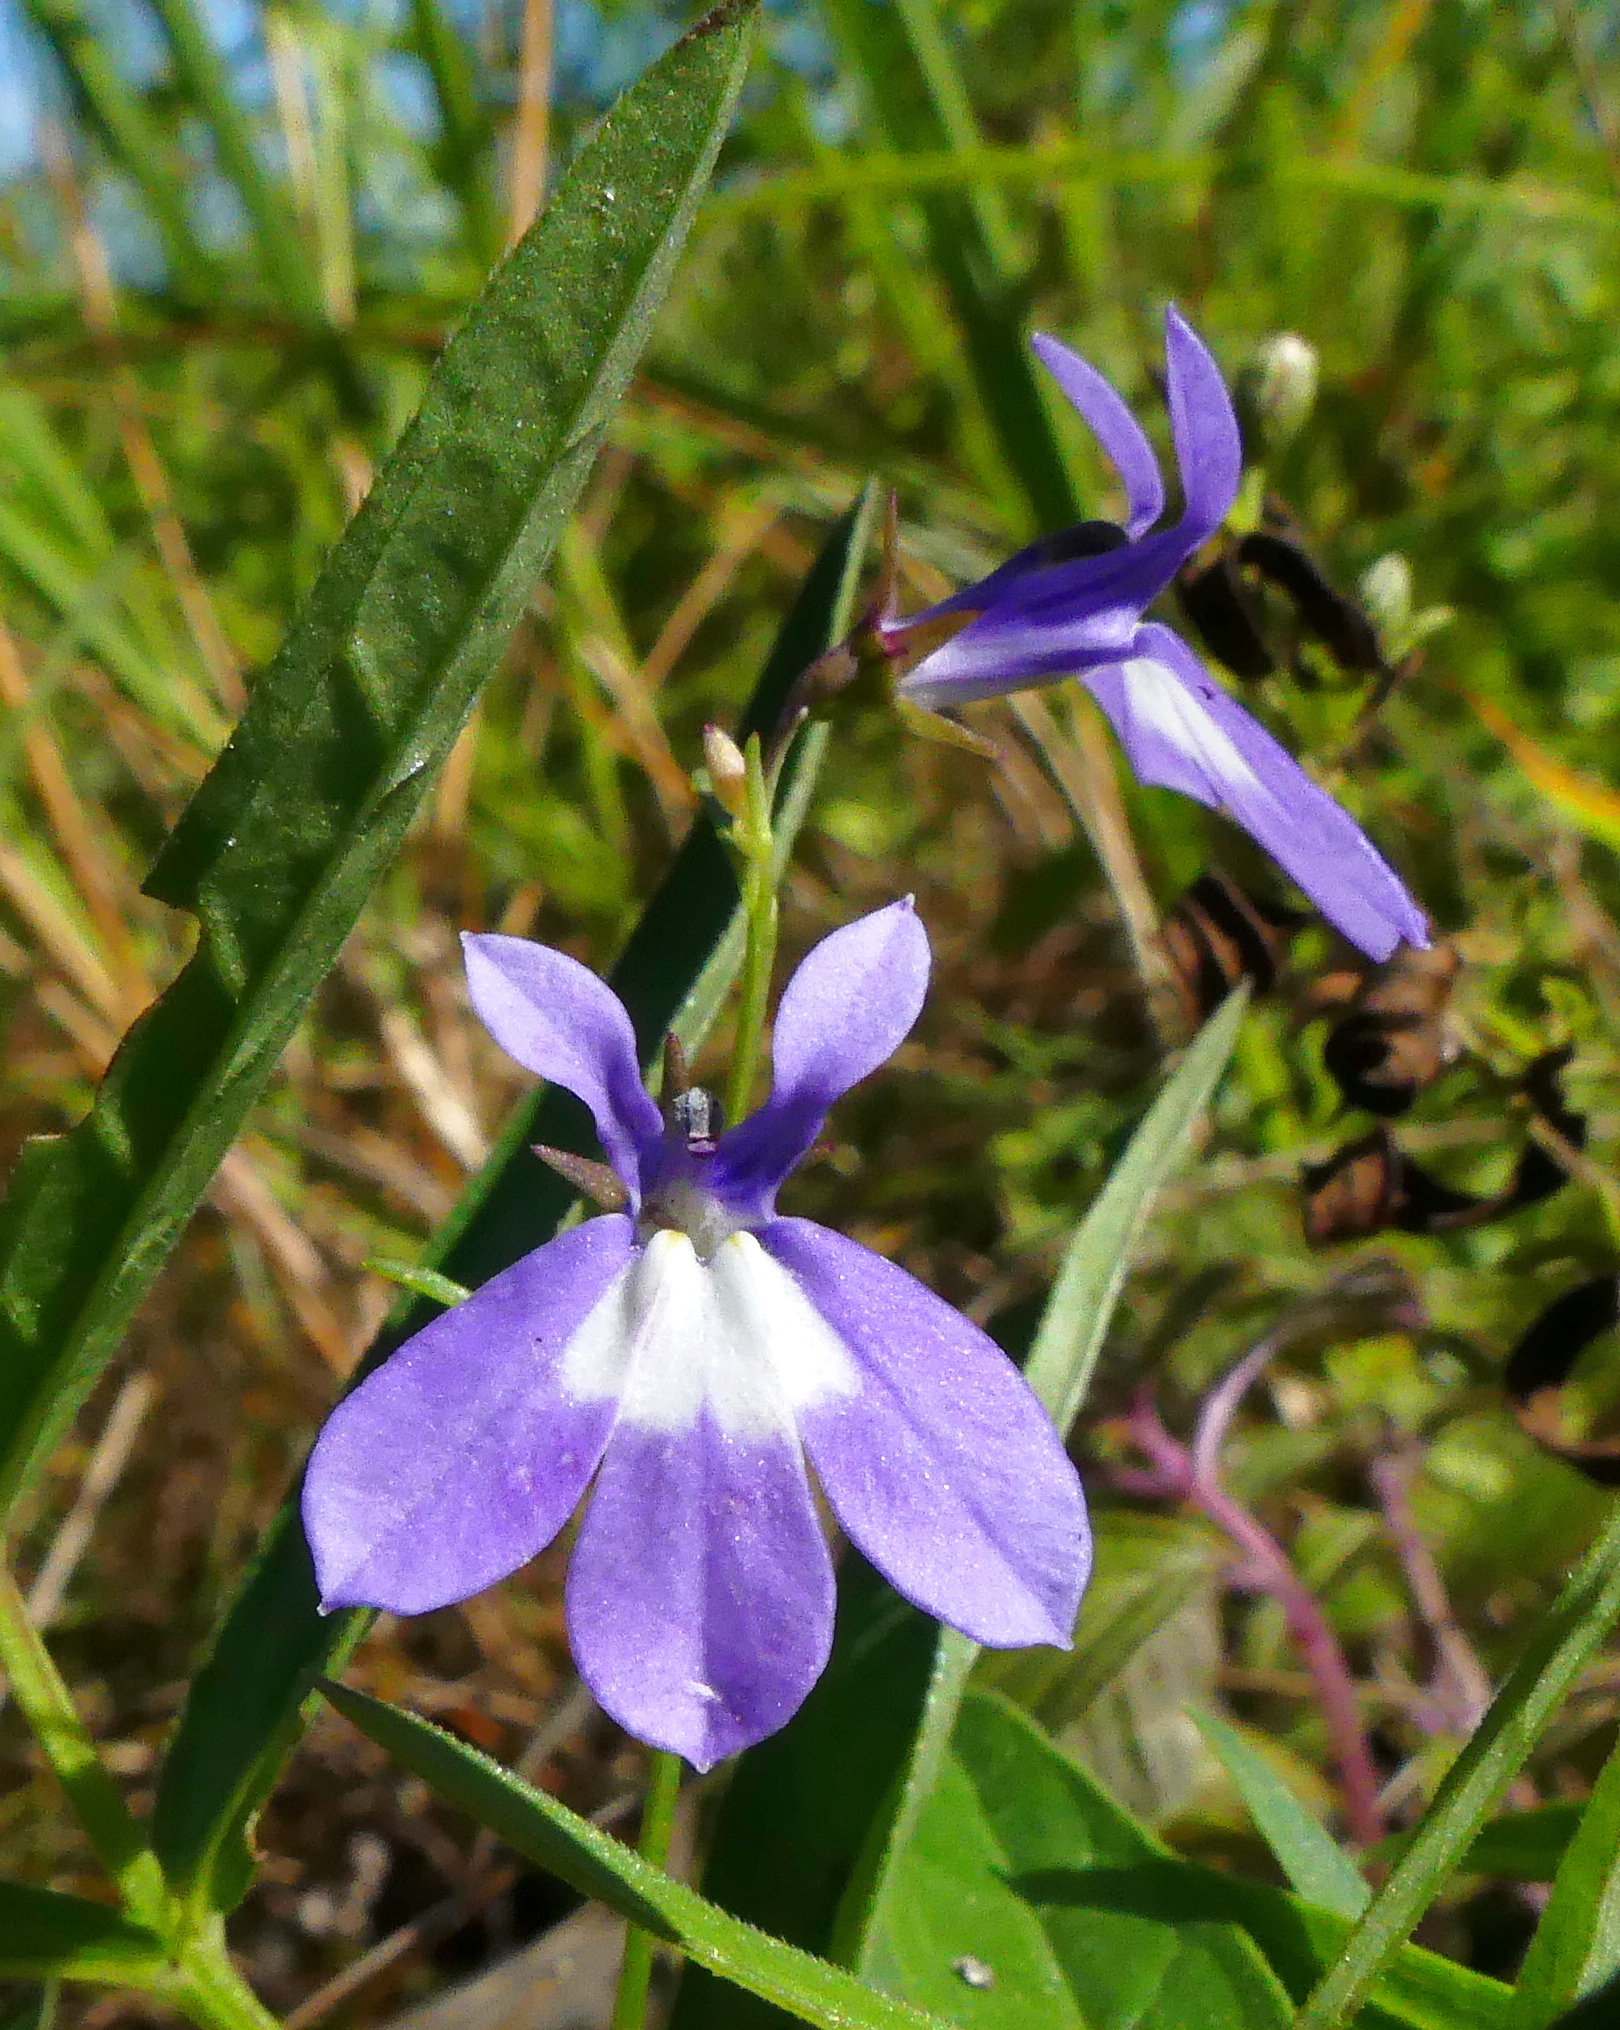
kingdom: Plantae
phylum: Tracheophyta
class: Magnoliopsida
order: Asterales
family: Campanulaceae
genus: Lobelia
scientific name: Lobelia kalmii
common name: Kalm's lobelia
